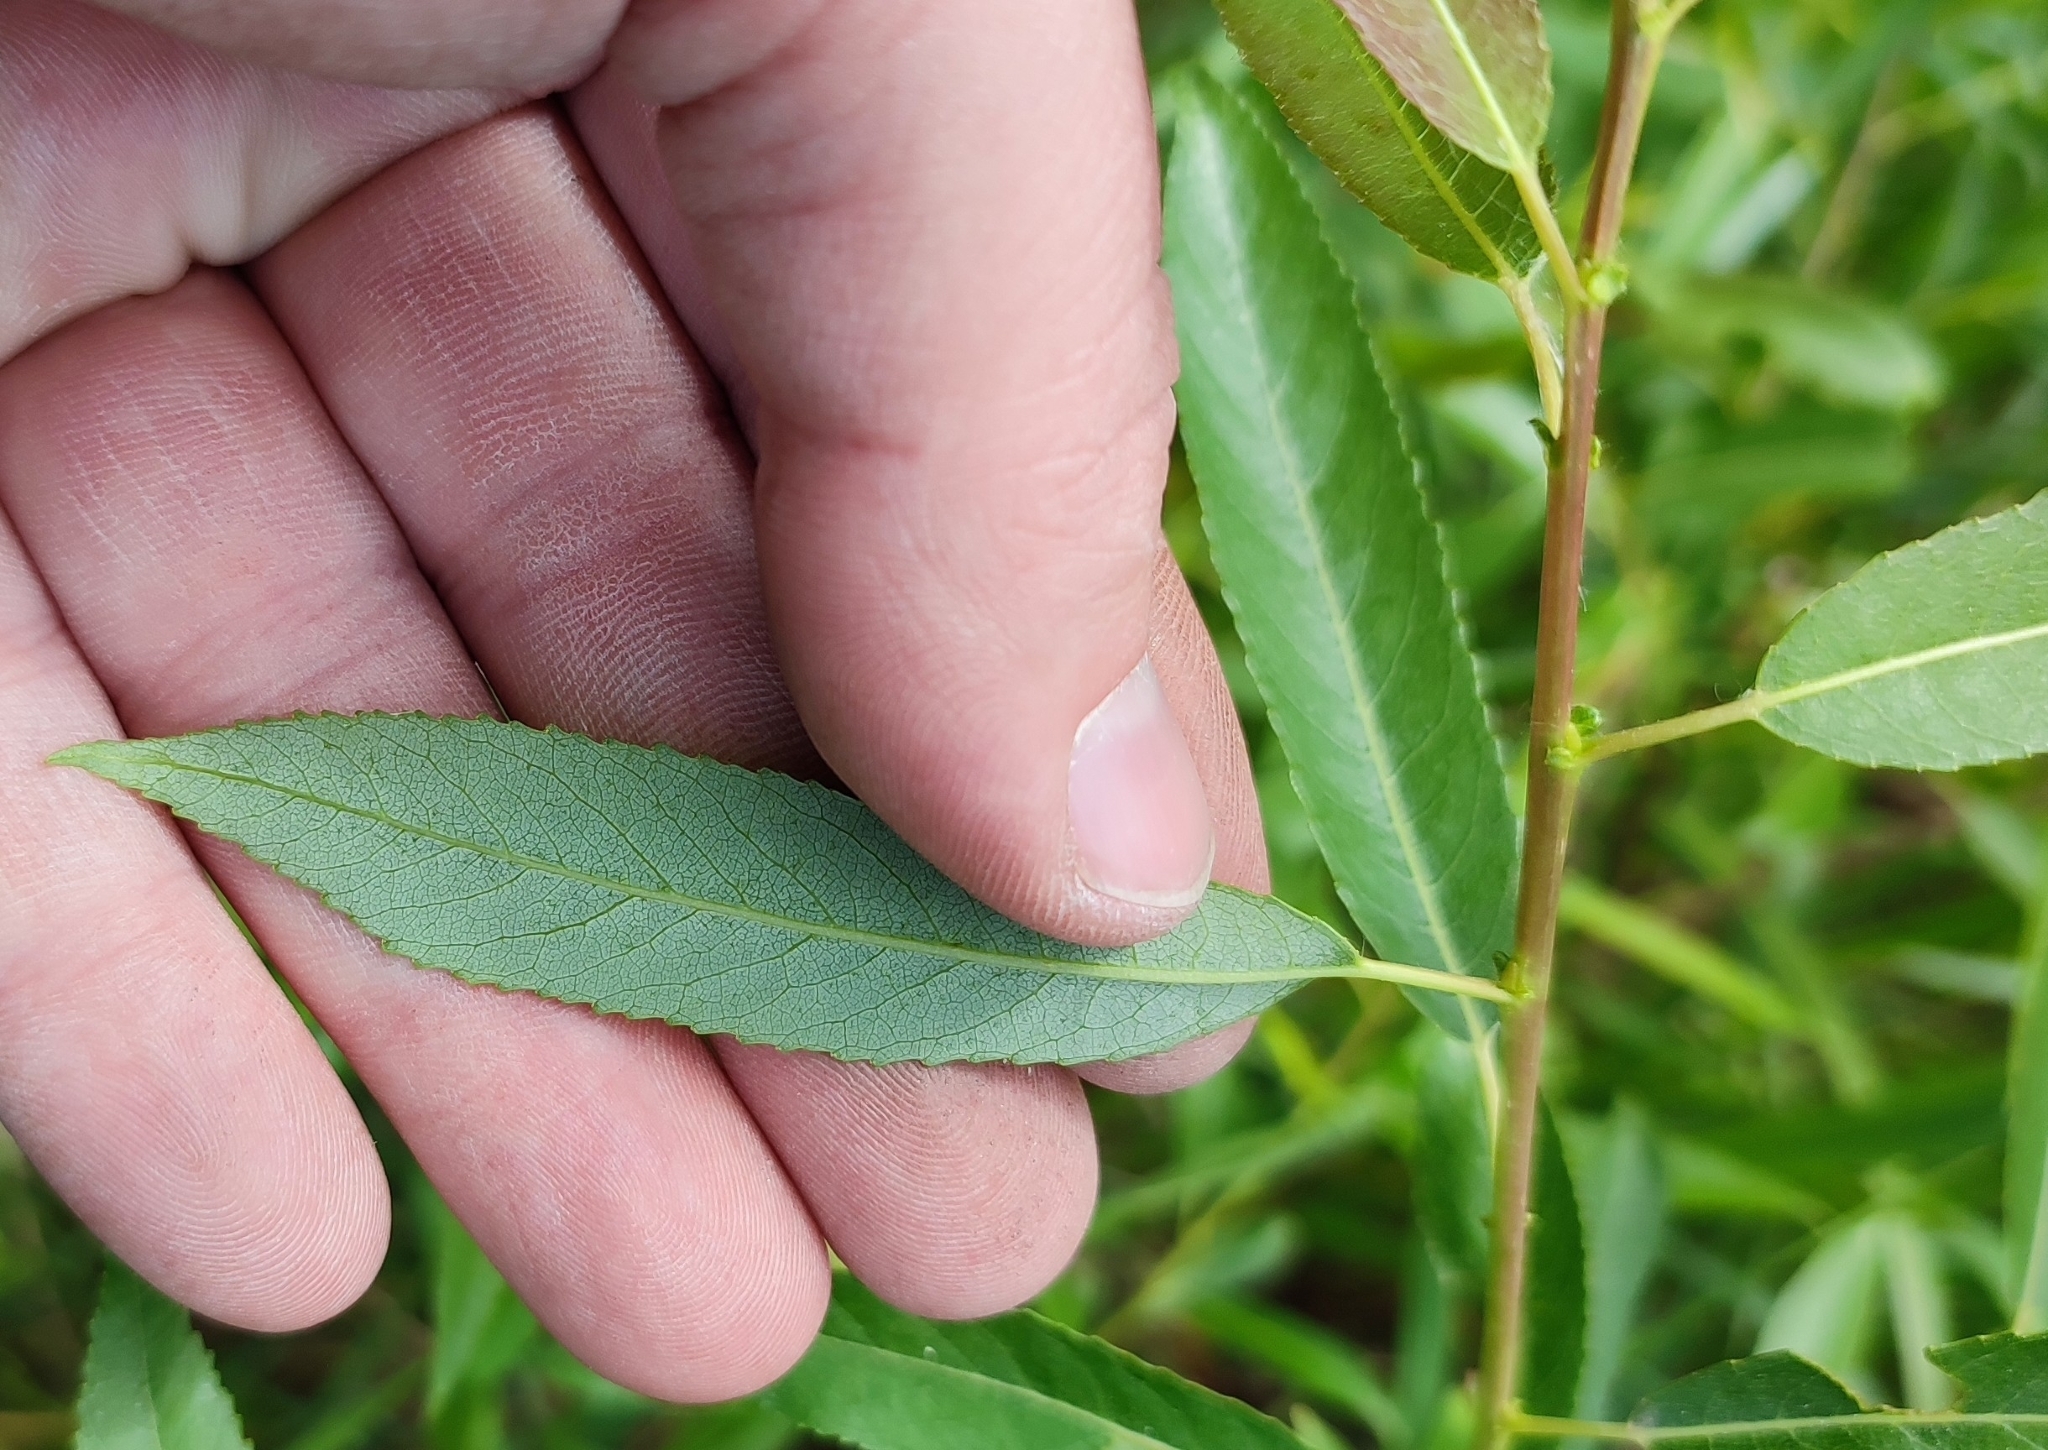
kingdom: Plantae
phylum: Tracheophyta
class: Magnoliopsida
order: Malpighiales
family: Salicaceae
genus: Salix
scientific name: Salix triandra
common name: Almond willow
